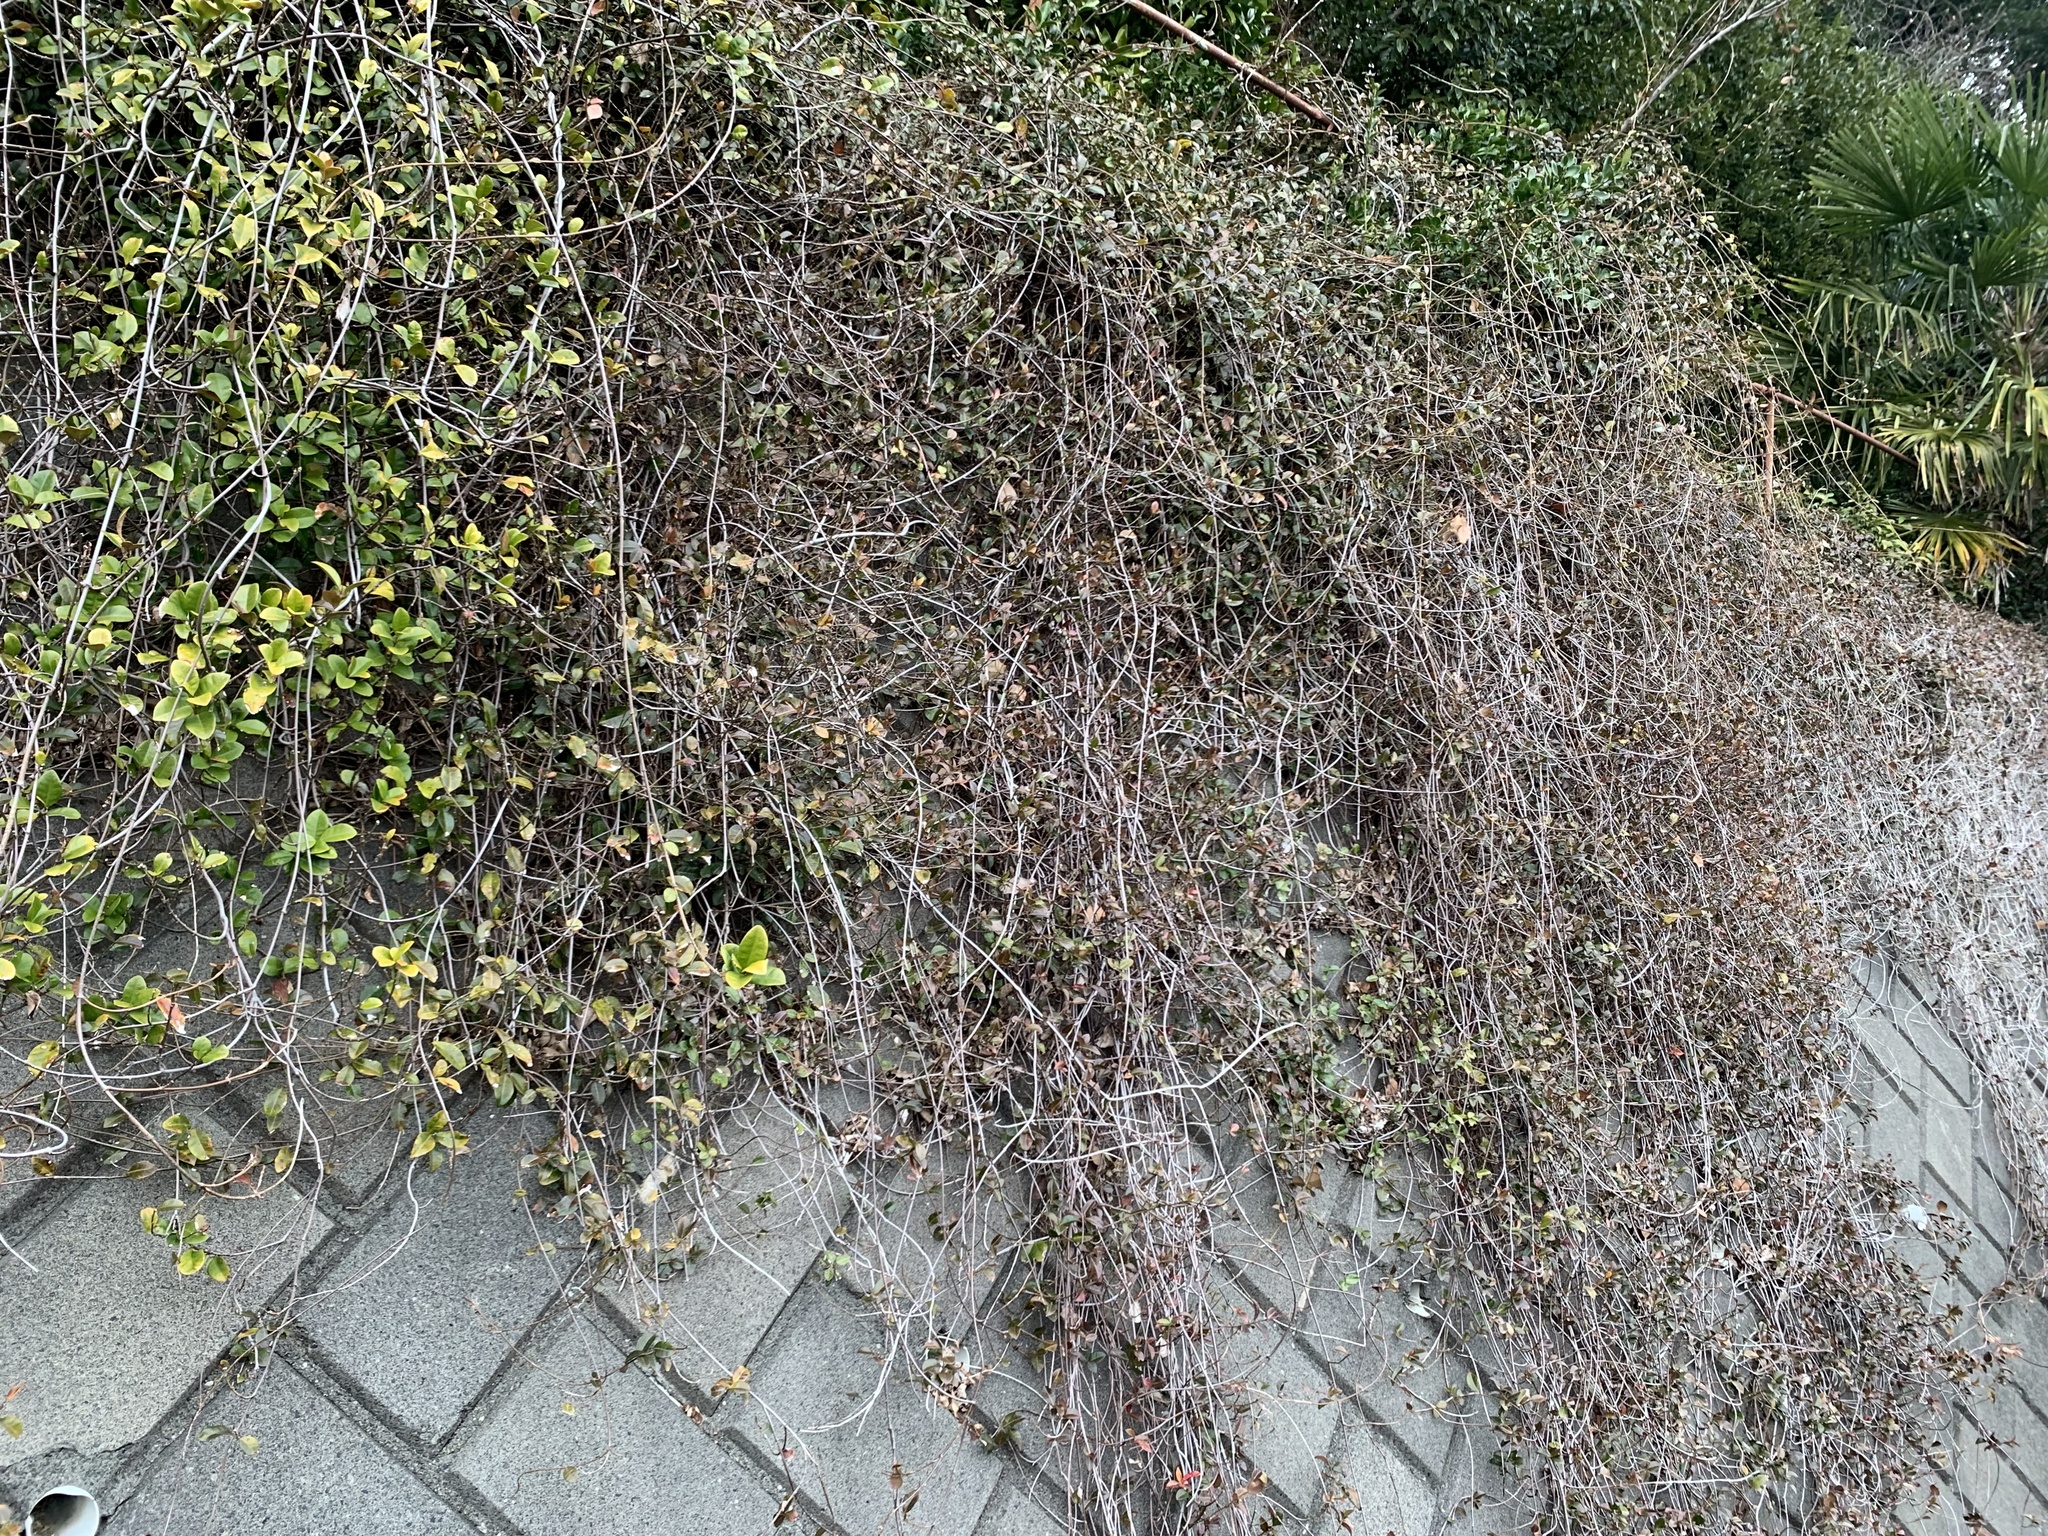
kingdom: Plantae
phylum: Tracheophyta
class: Magnoliopsida
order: Gentianales
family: Apocynaceae
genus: Trachelospermum
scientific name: Trachelospermum asiaticum
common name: Asiatic jasmine
